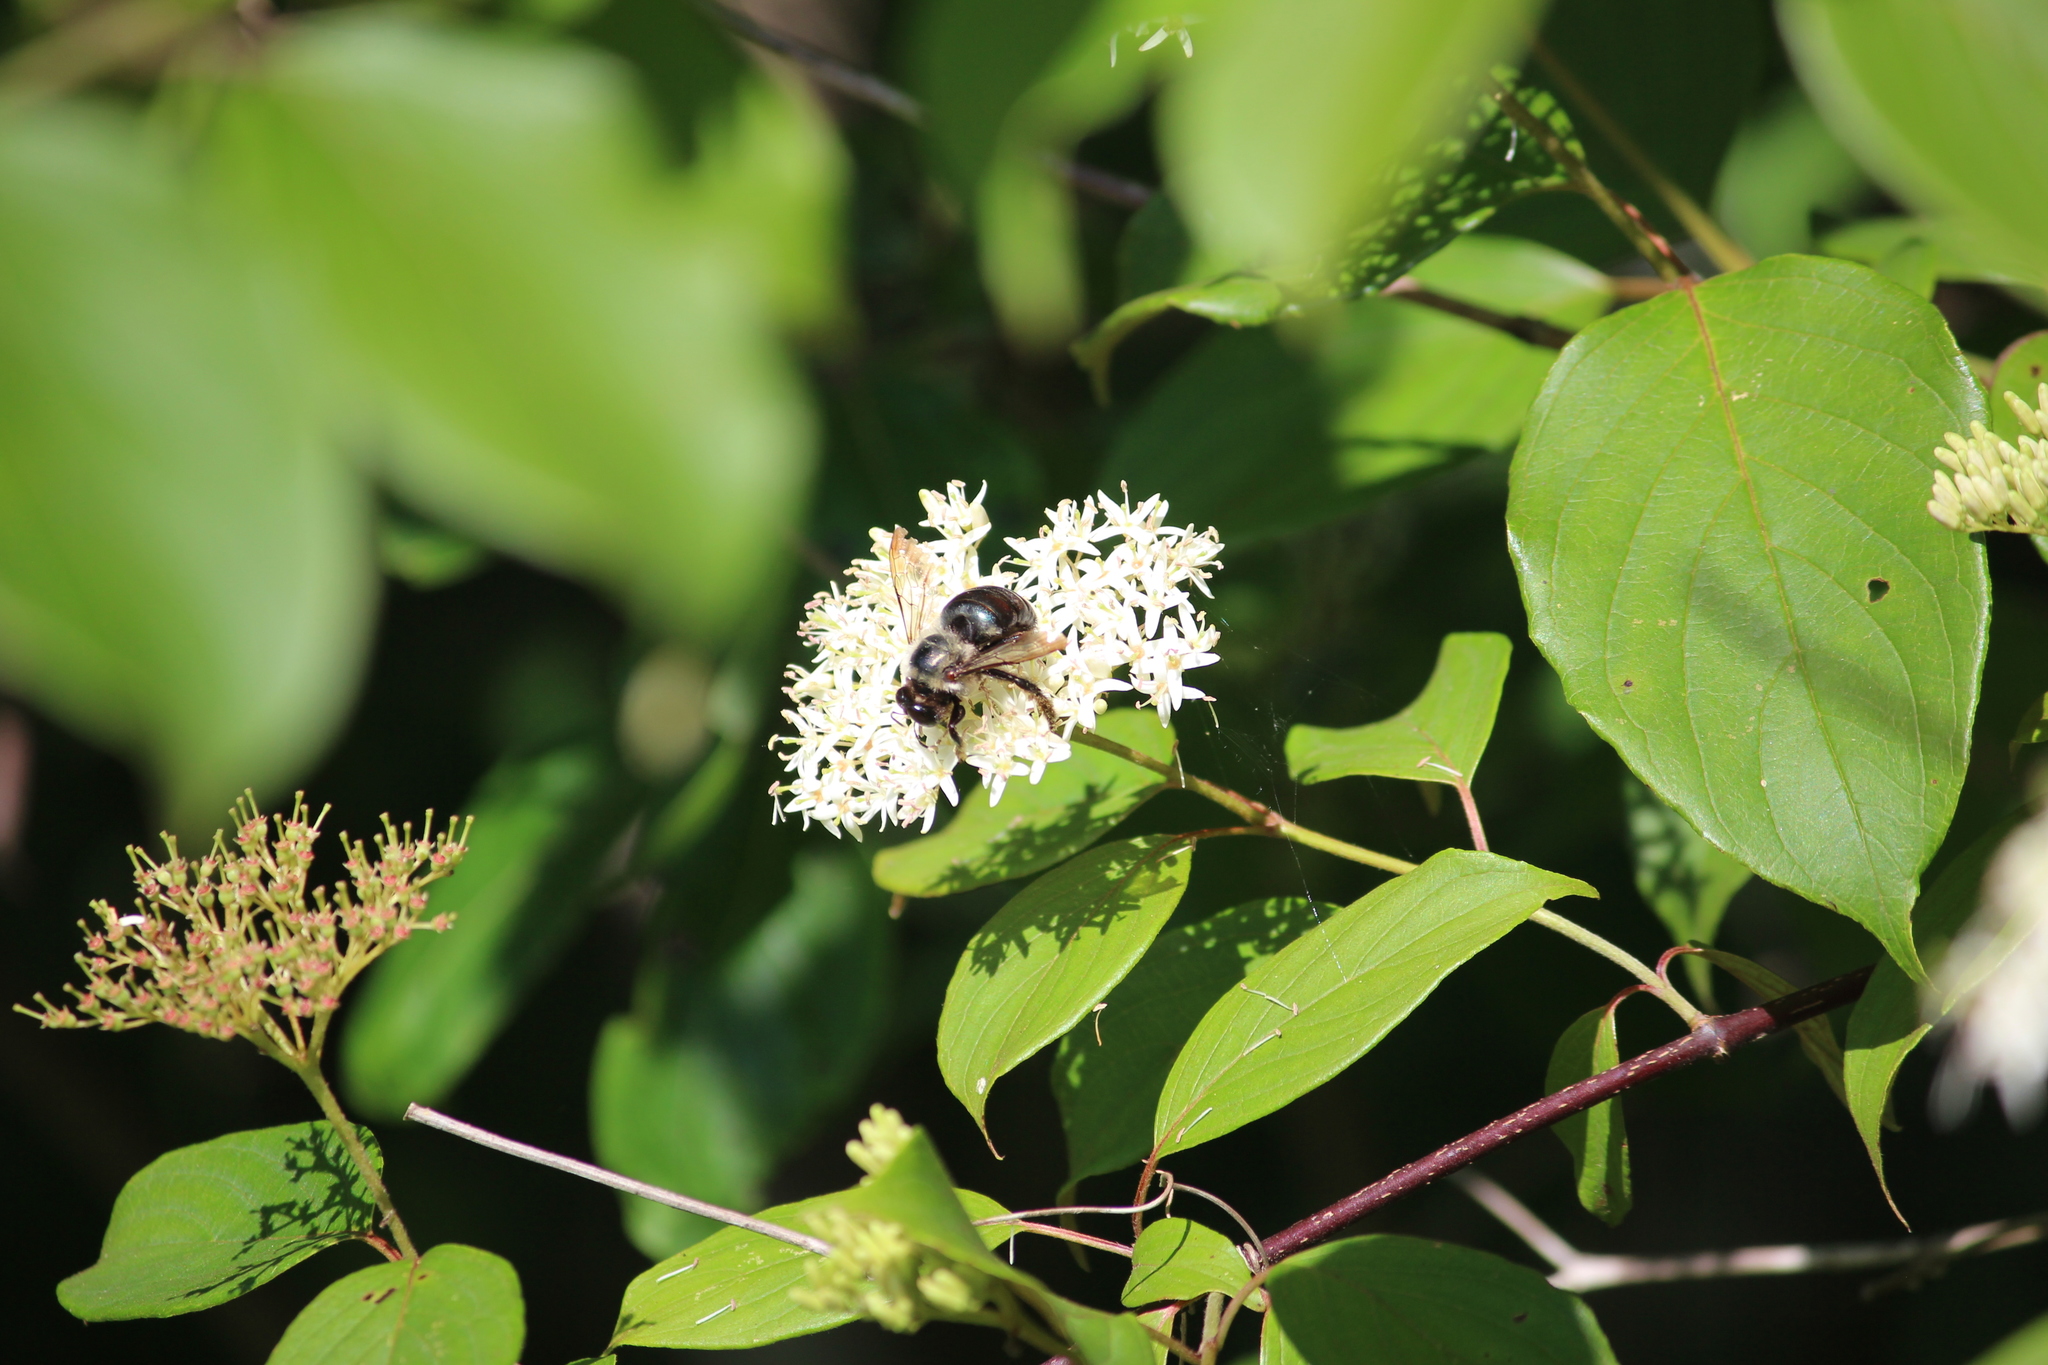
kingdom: Animalia
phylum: Arthropoda
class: Insecta
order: Hymenoptera
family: Apidae
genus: Xylocopa
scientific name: Xylocopa virginica
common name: Carpenter bee
